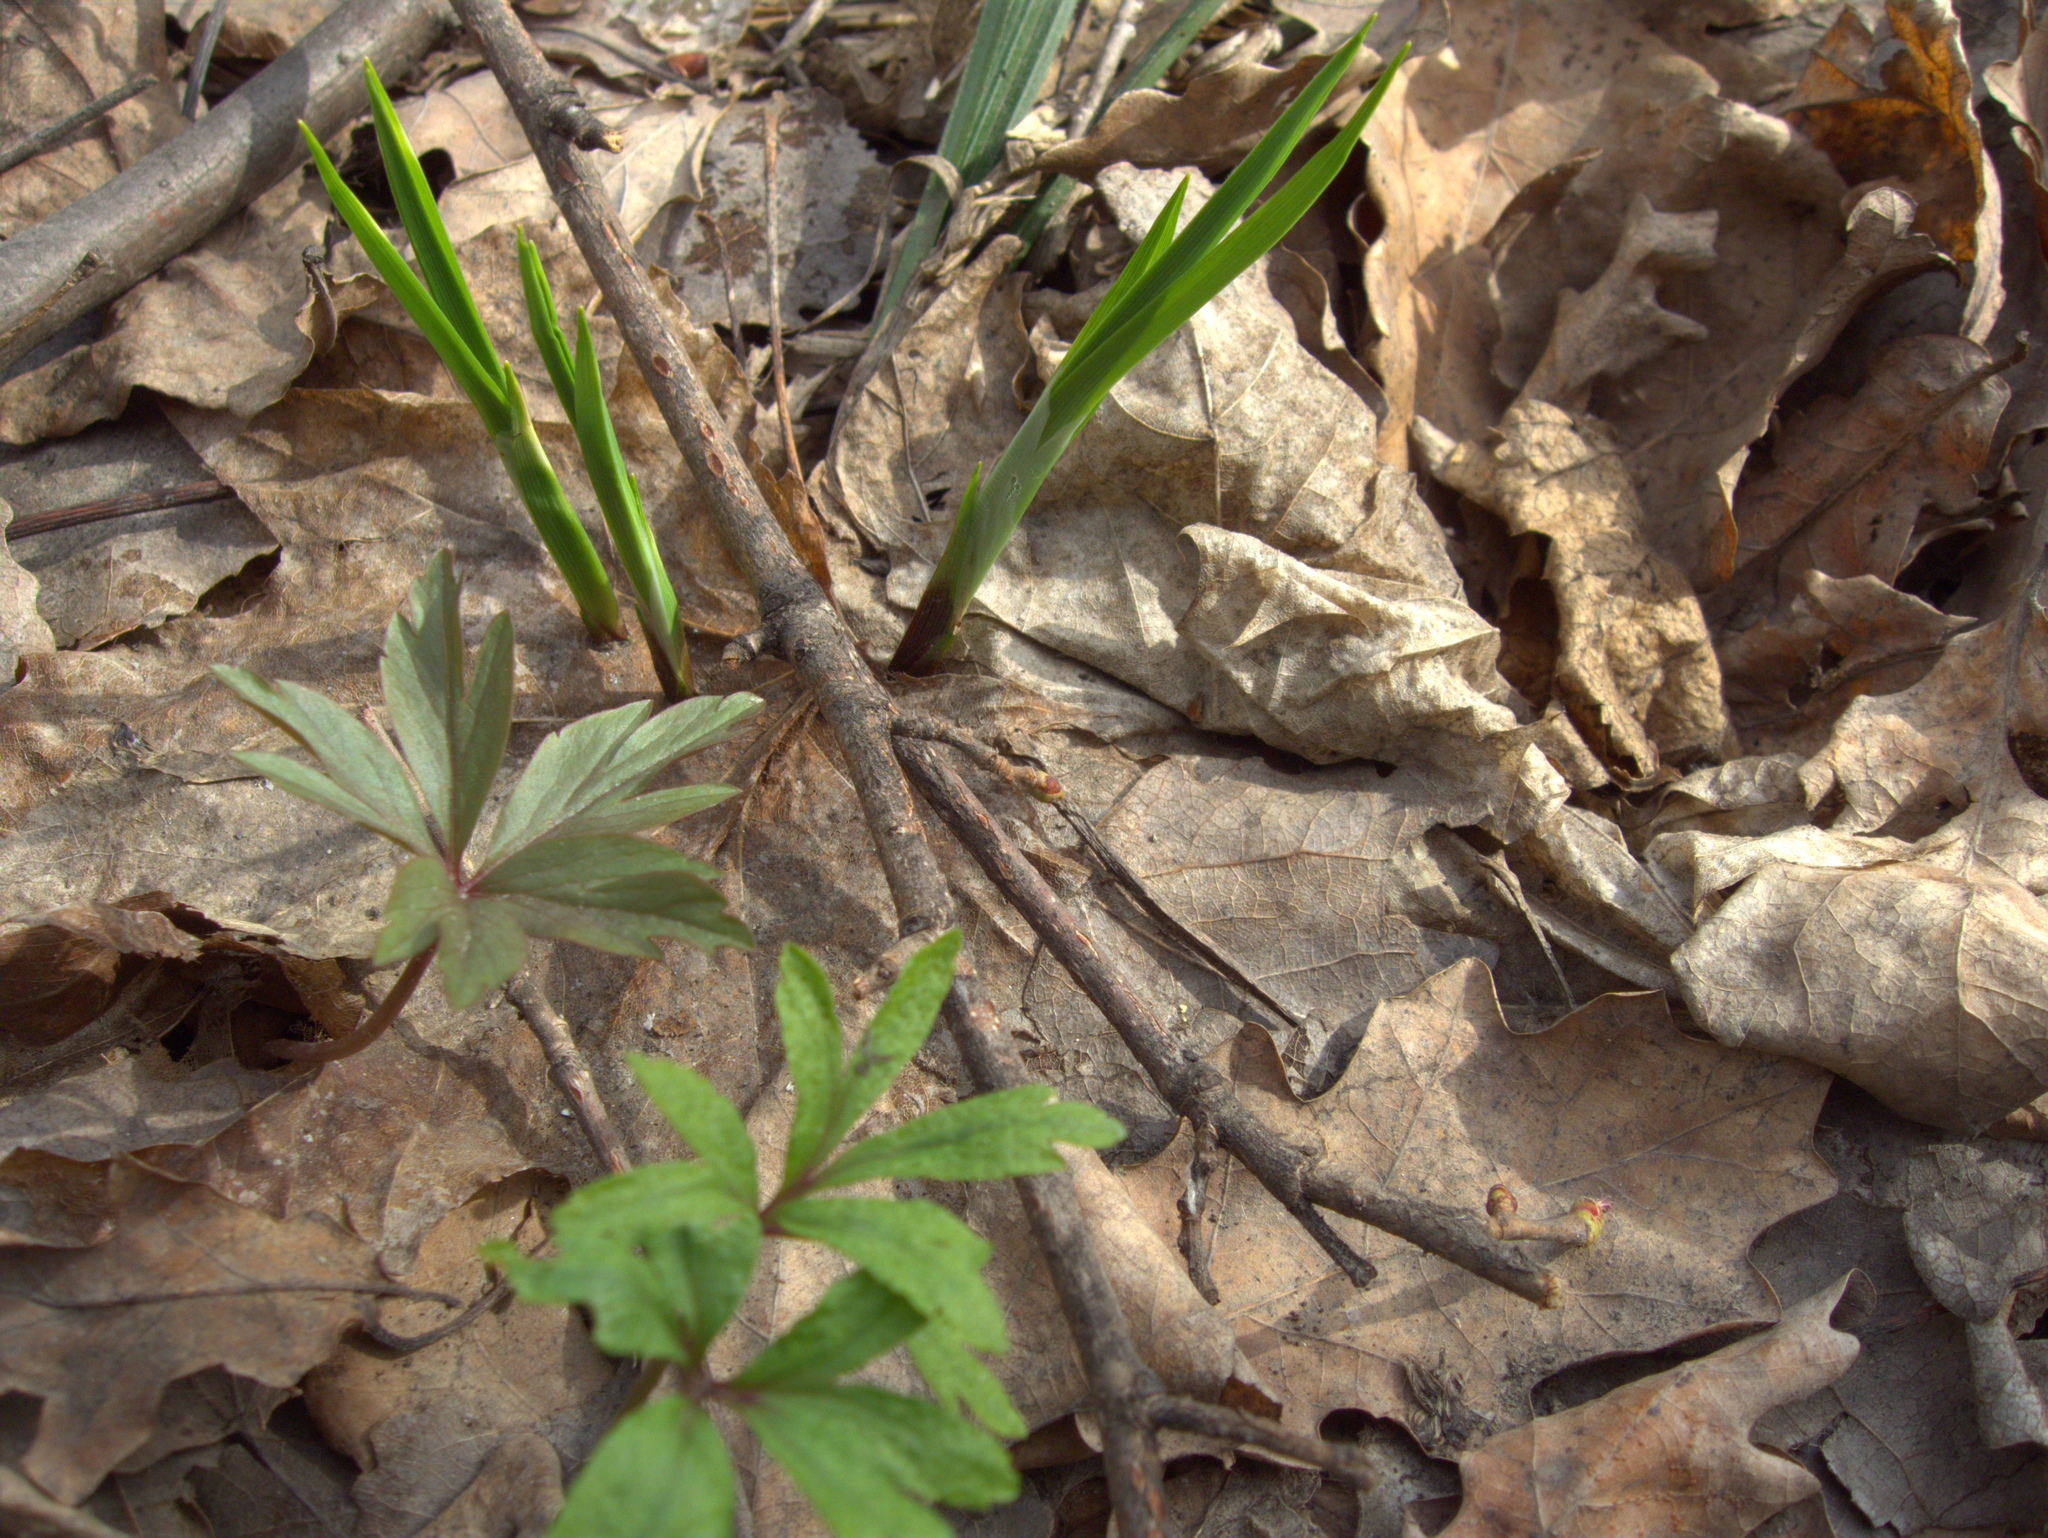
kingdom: Plantae
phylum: Tracheophyta
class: Liliopsida
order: Poales
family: Cyperaceae
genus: Carex
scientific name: Carex pilosa
